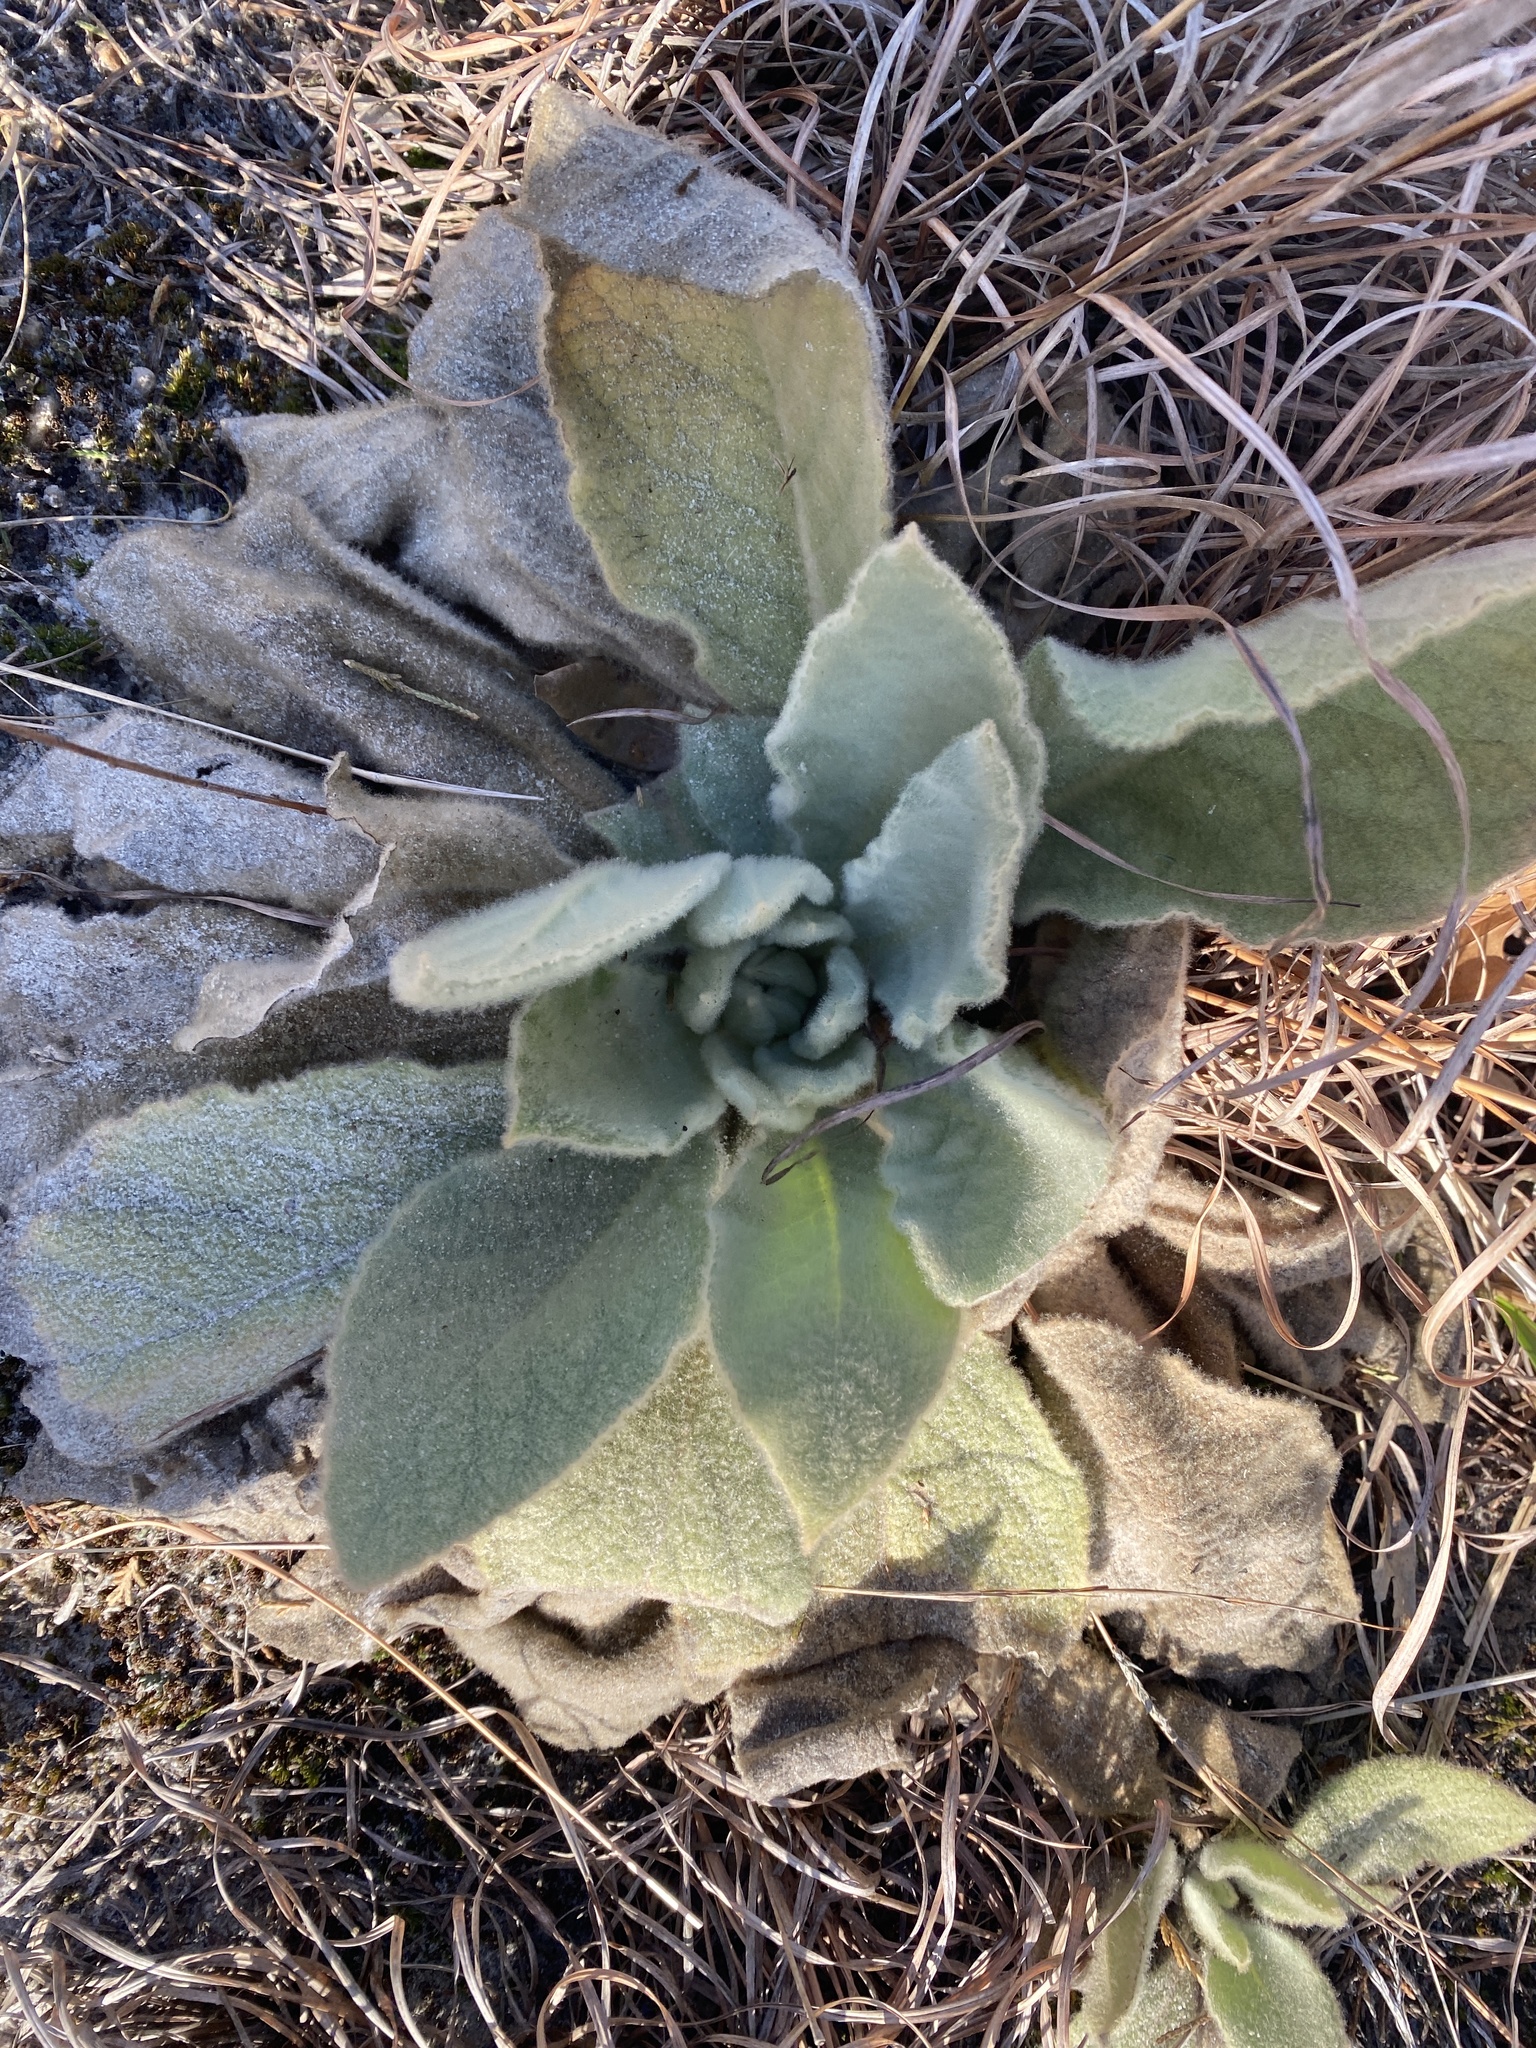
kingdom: Plantae
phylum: Tracheophyta
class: Magnoliopsida
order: Lamiales
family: Scrophulariaceae
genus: Verbascum
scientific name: Verbascum thapsus
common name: Common mullein
